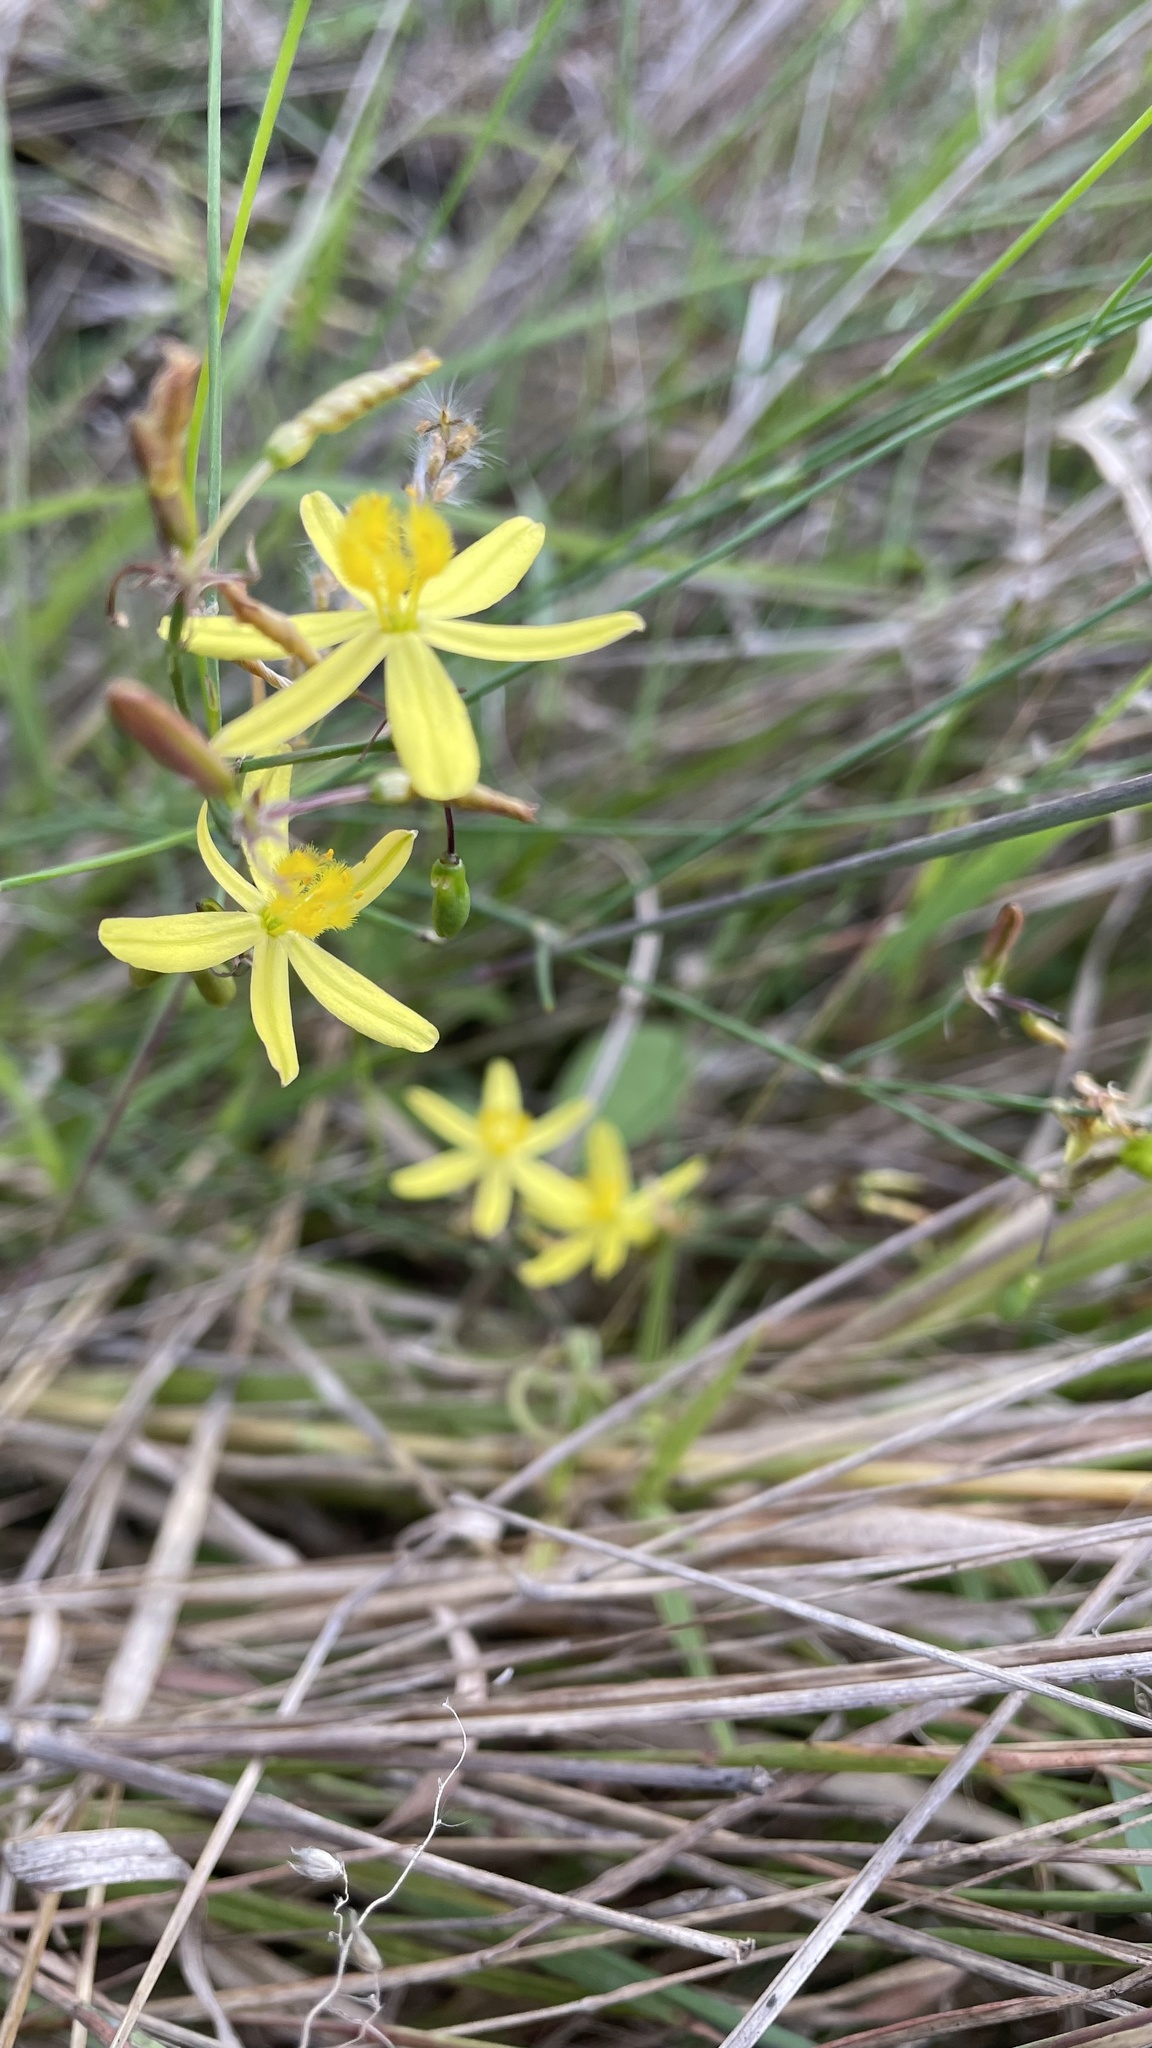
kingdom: Plantae
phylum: Tracheophyta
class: Liliopsida
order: Asparagales
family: Asphodelaceae
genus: Tricoryne
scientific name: Tricoryne elatior
